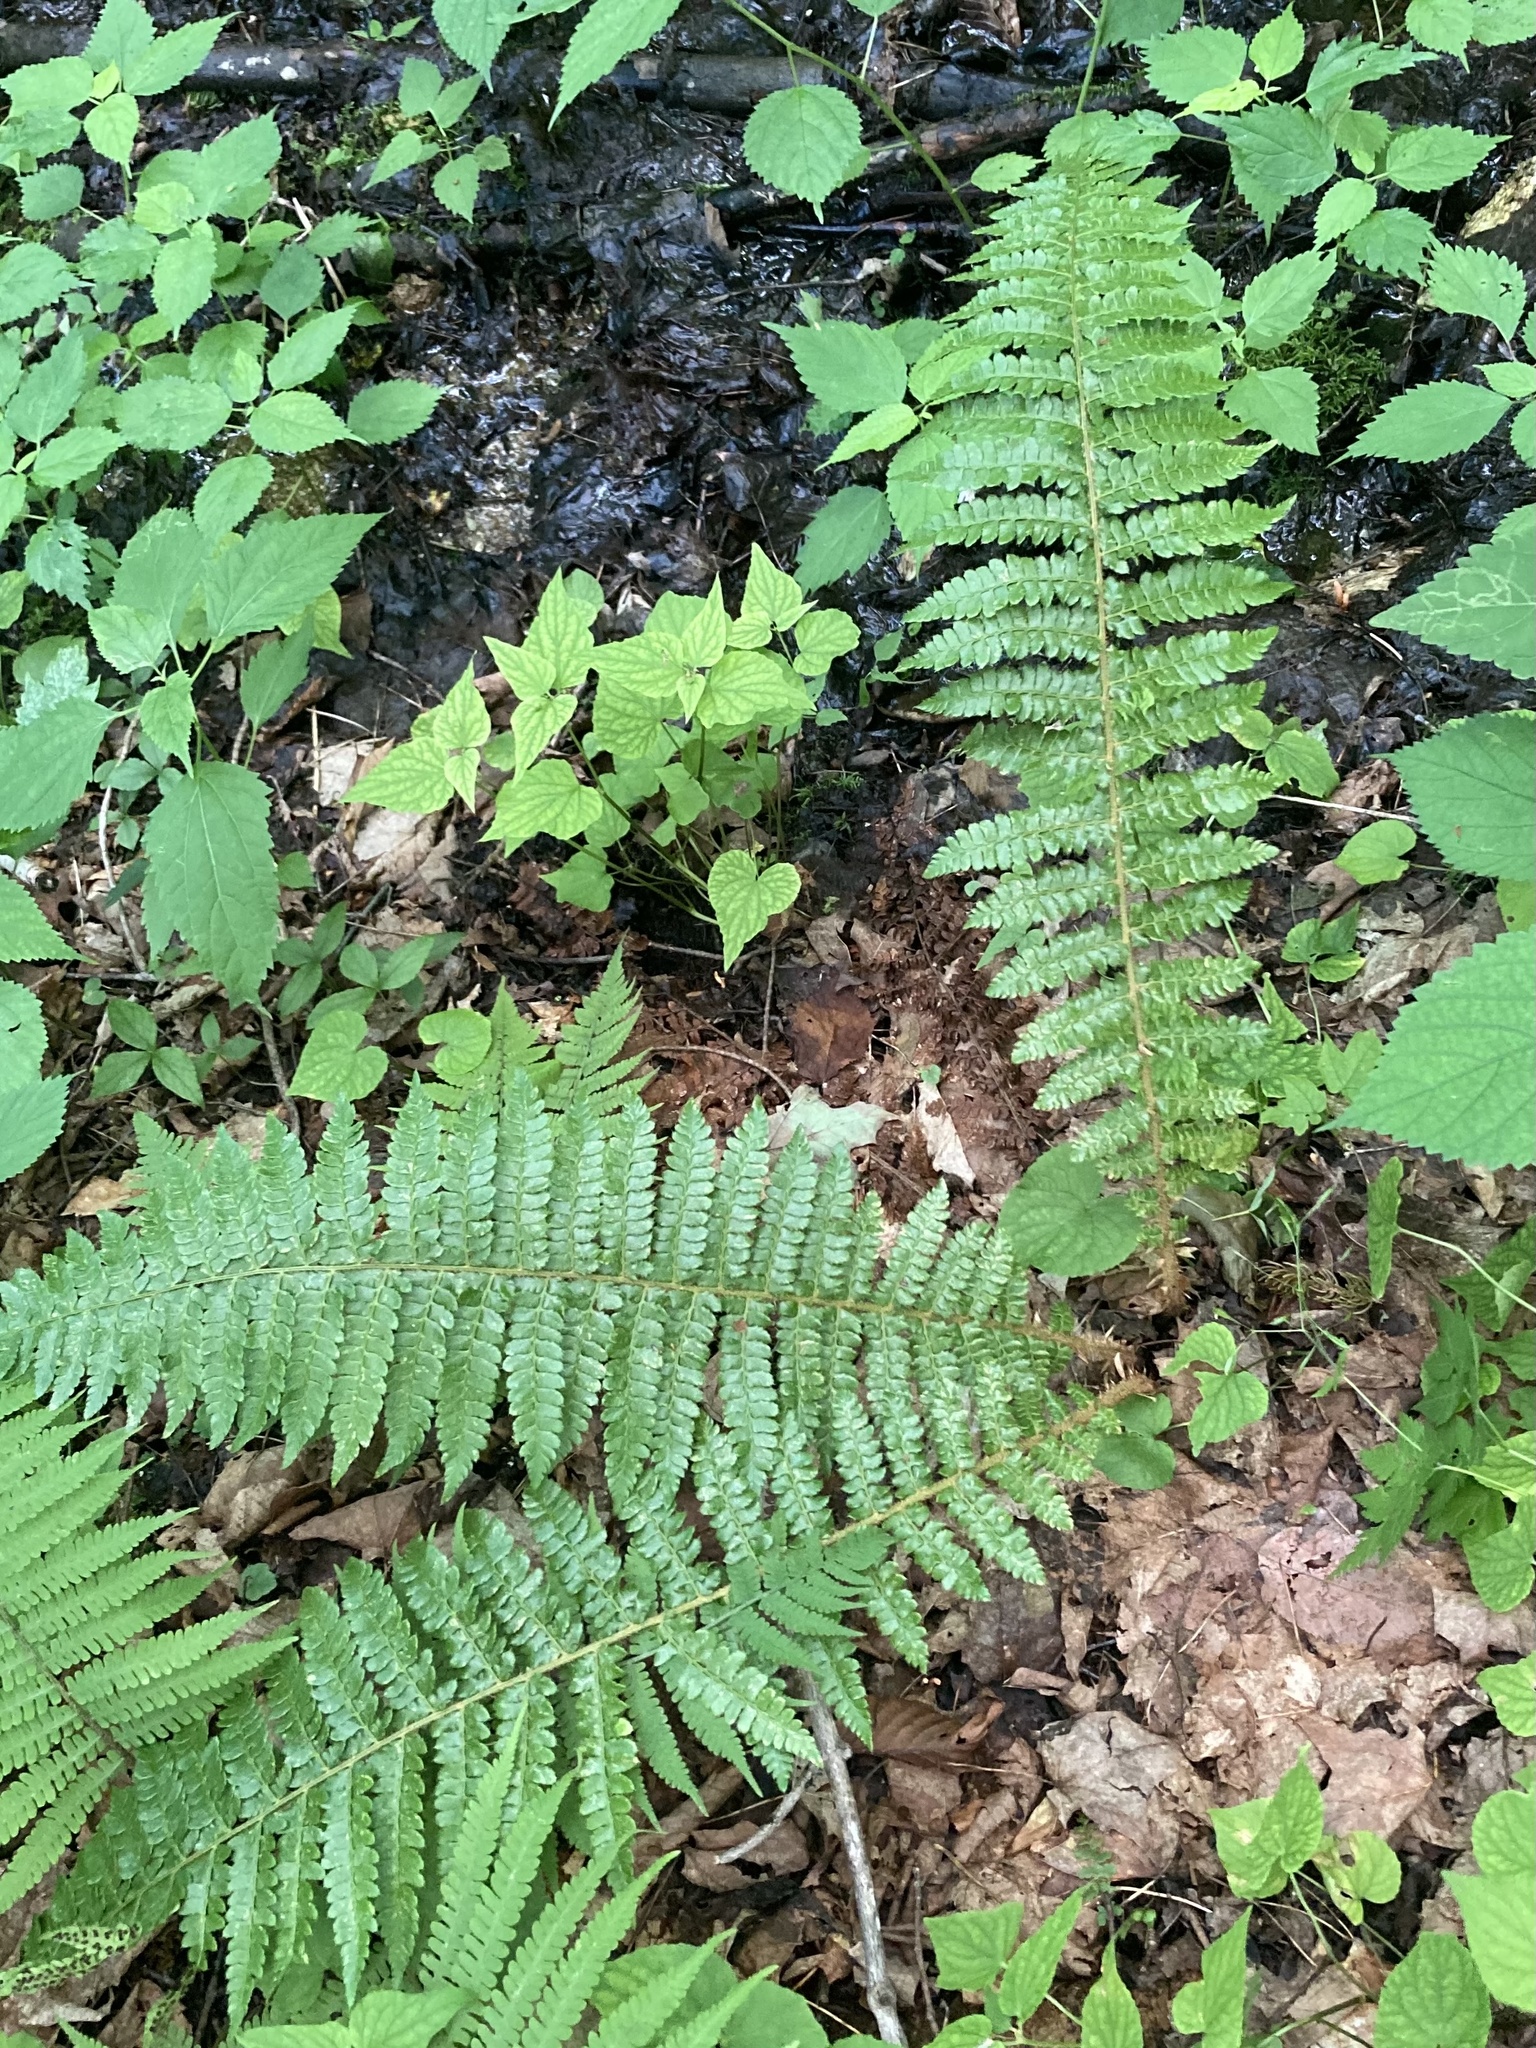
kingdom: Plantae
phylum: Tracheophyta
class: Polypodiopsida
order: Polypodiales
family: Dryopteridaceae
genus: Polystichum
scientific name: Polystichum braunii
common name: Braun's holly fern
